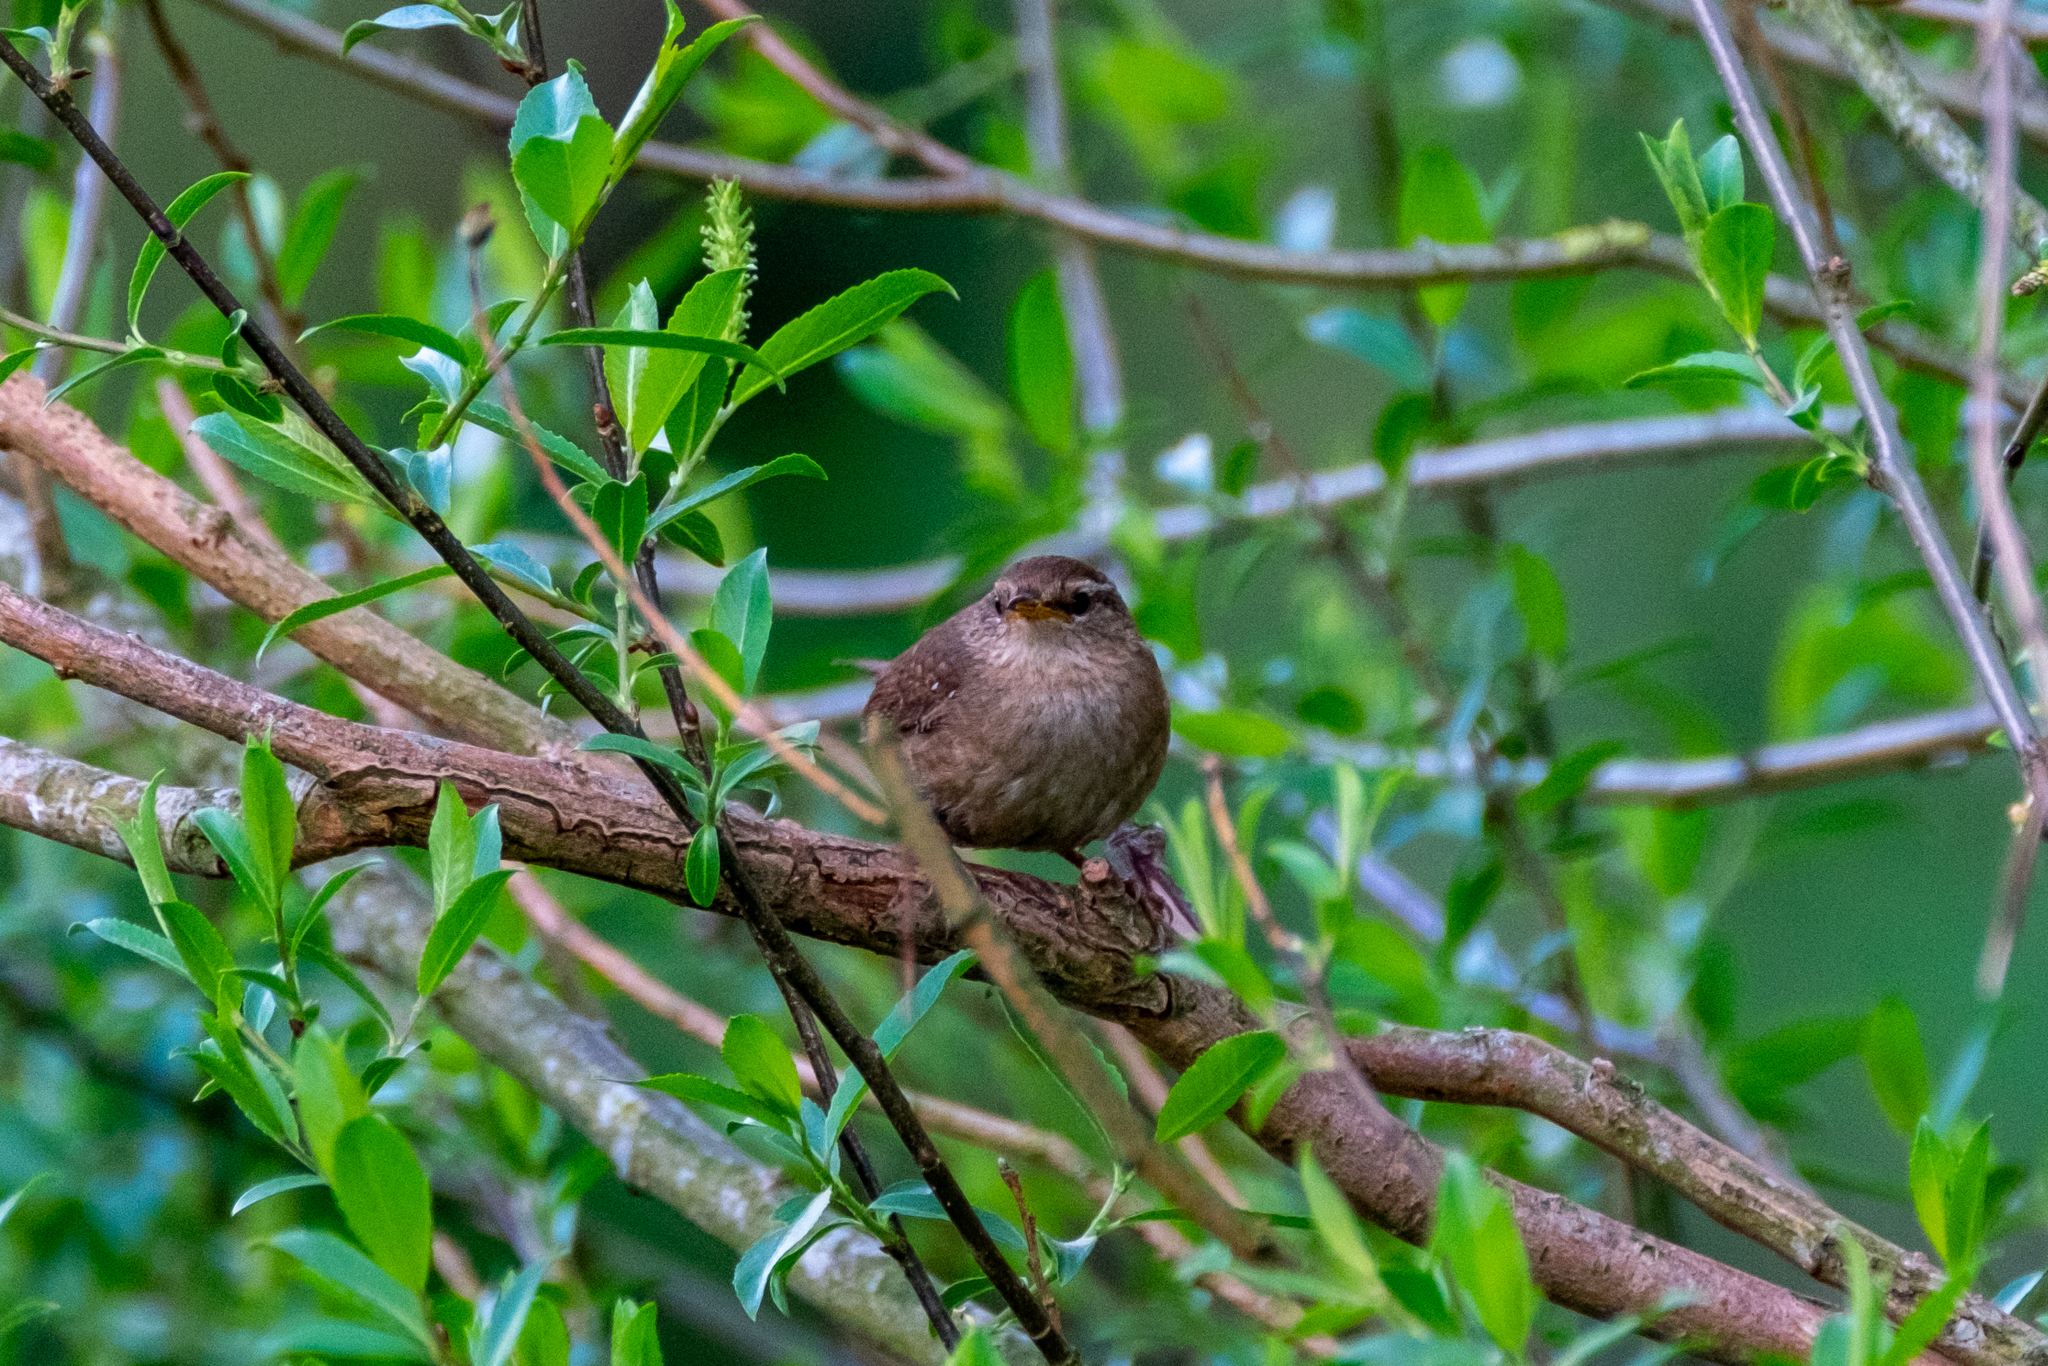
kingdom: Animalia
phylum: Chordata
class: Aves
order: Passeriformes
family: Troglodytidae
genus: Troglodytes
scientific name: Troglodytes troglodytes
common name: Eurasian wren
